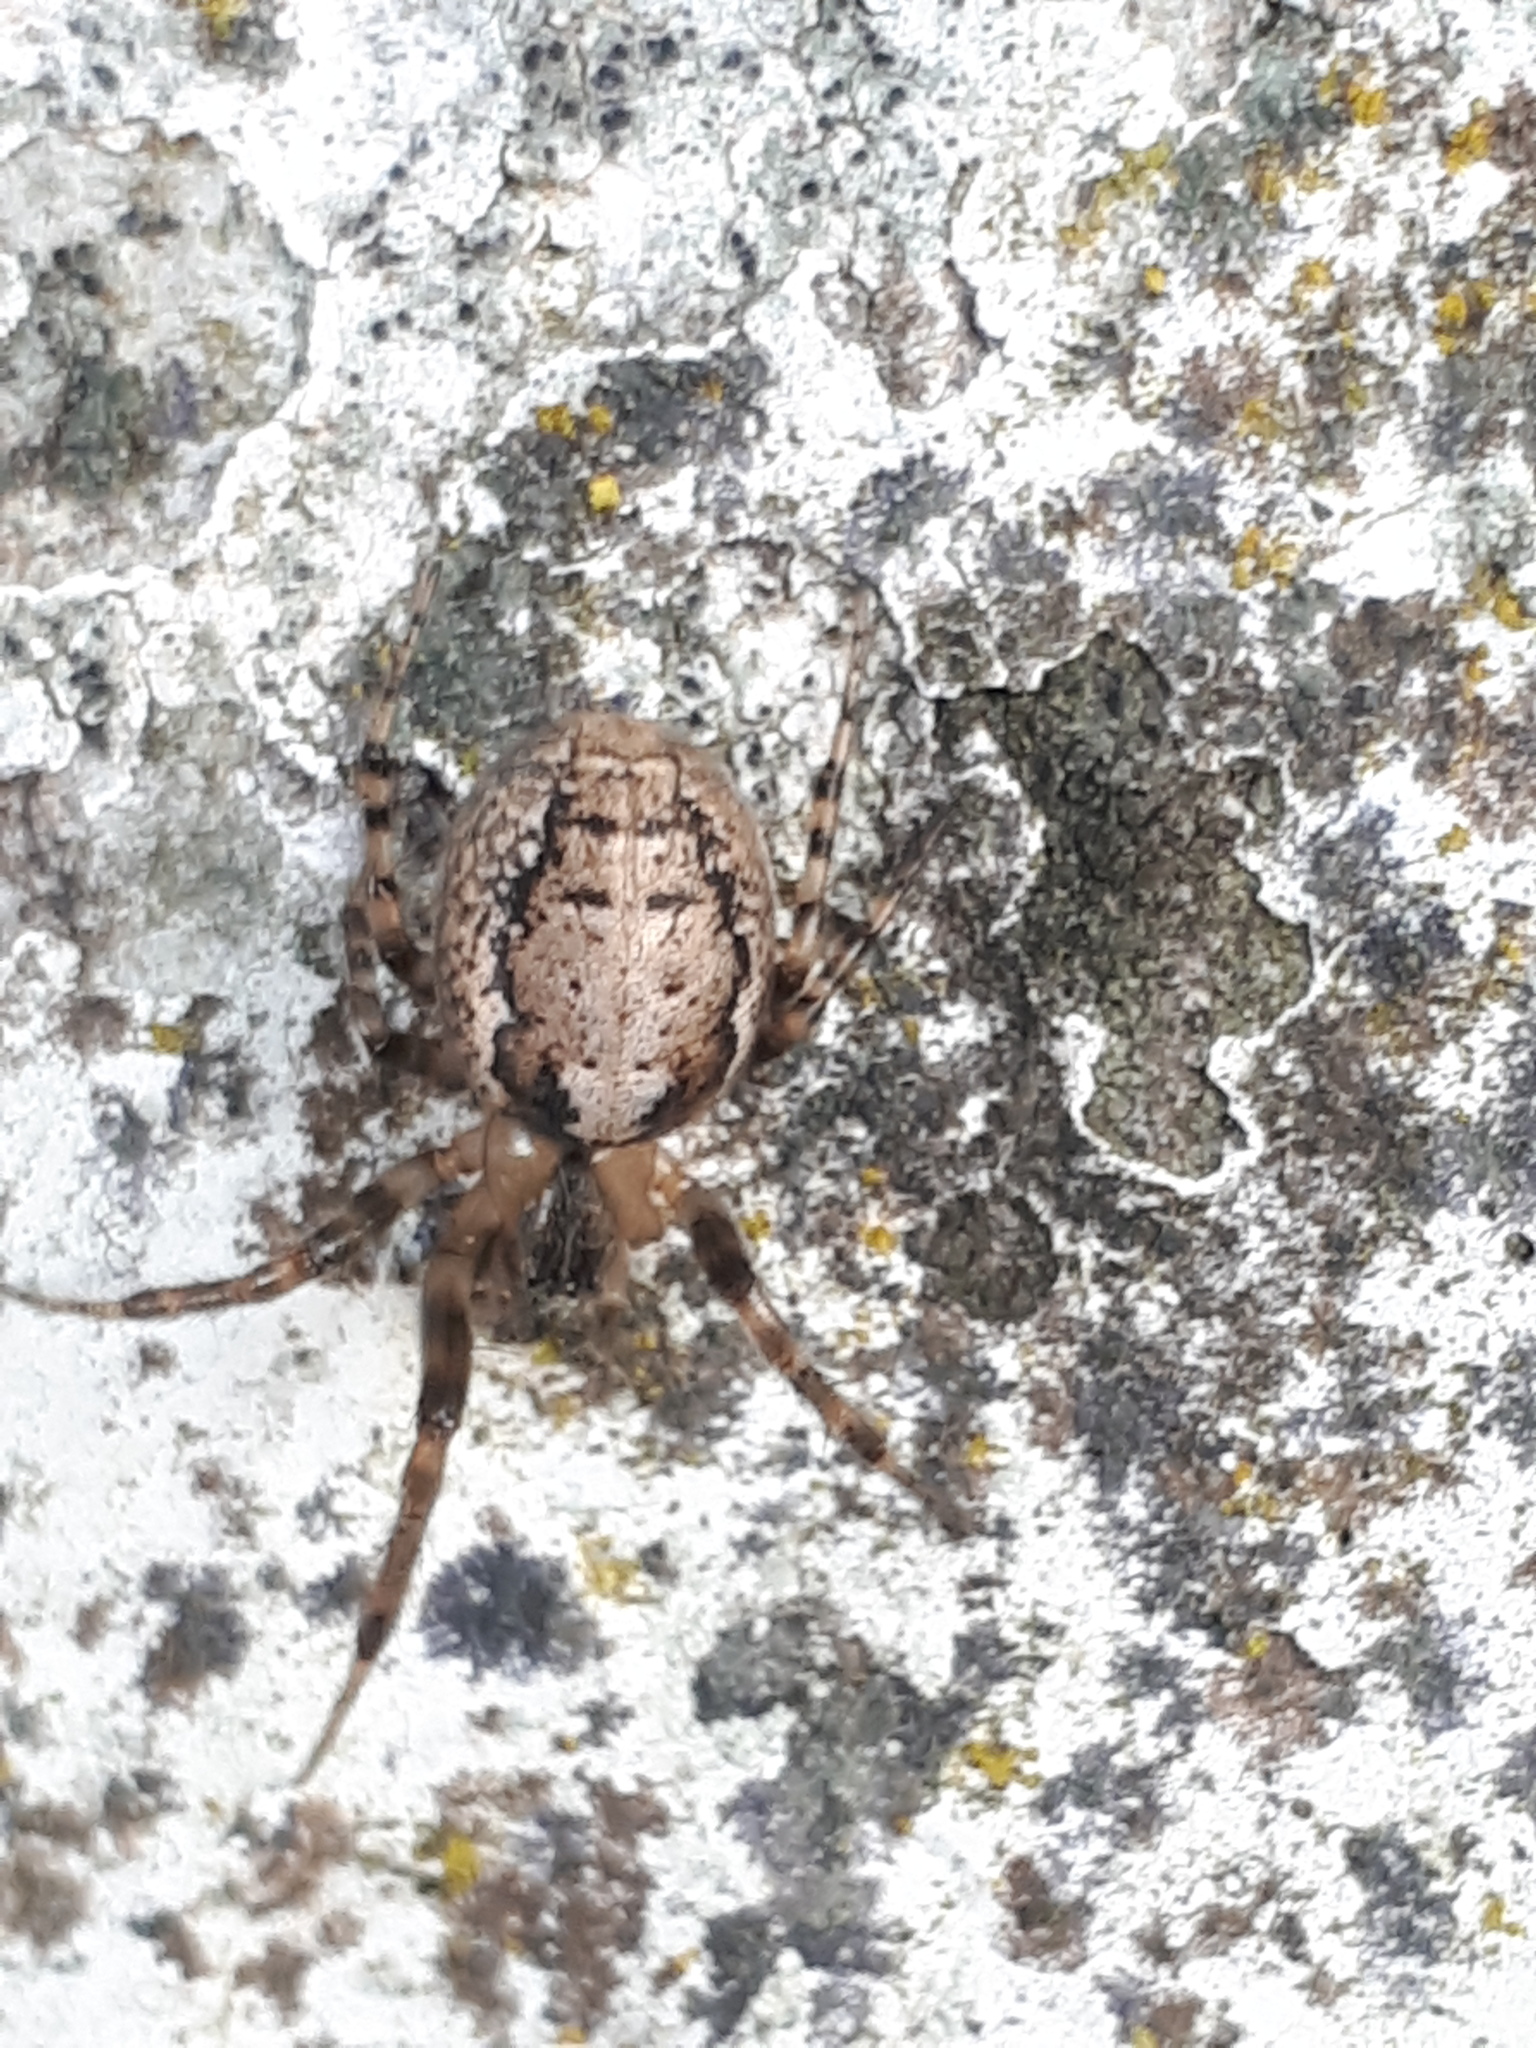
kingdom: Animalia
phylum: Arthropoda
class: Arachnida
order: Araneae
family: Araneidae
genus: Zygiella
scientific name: Zygiella x-notata
